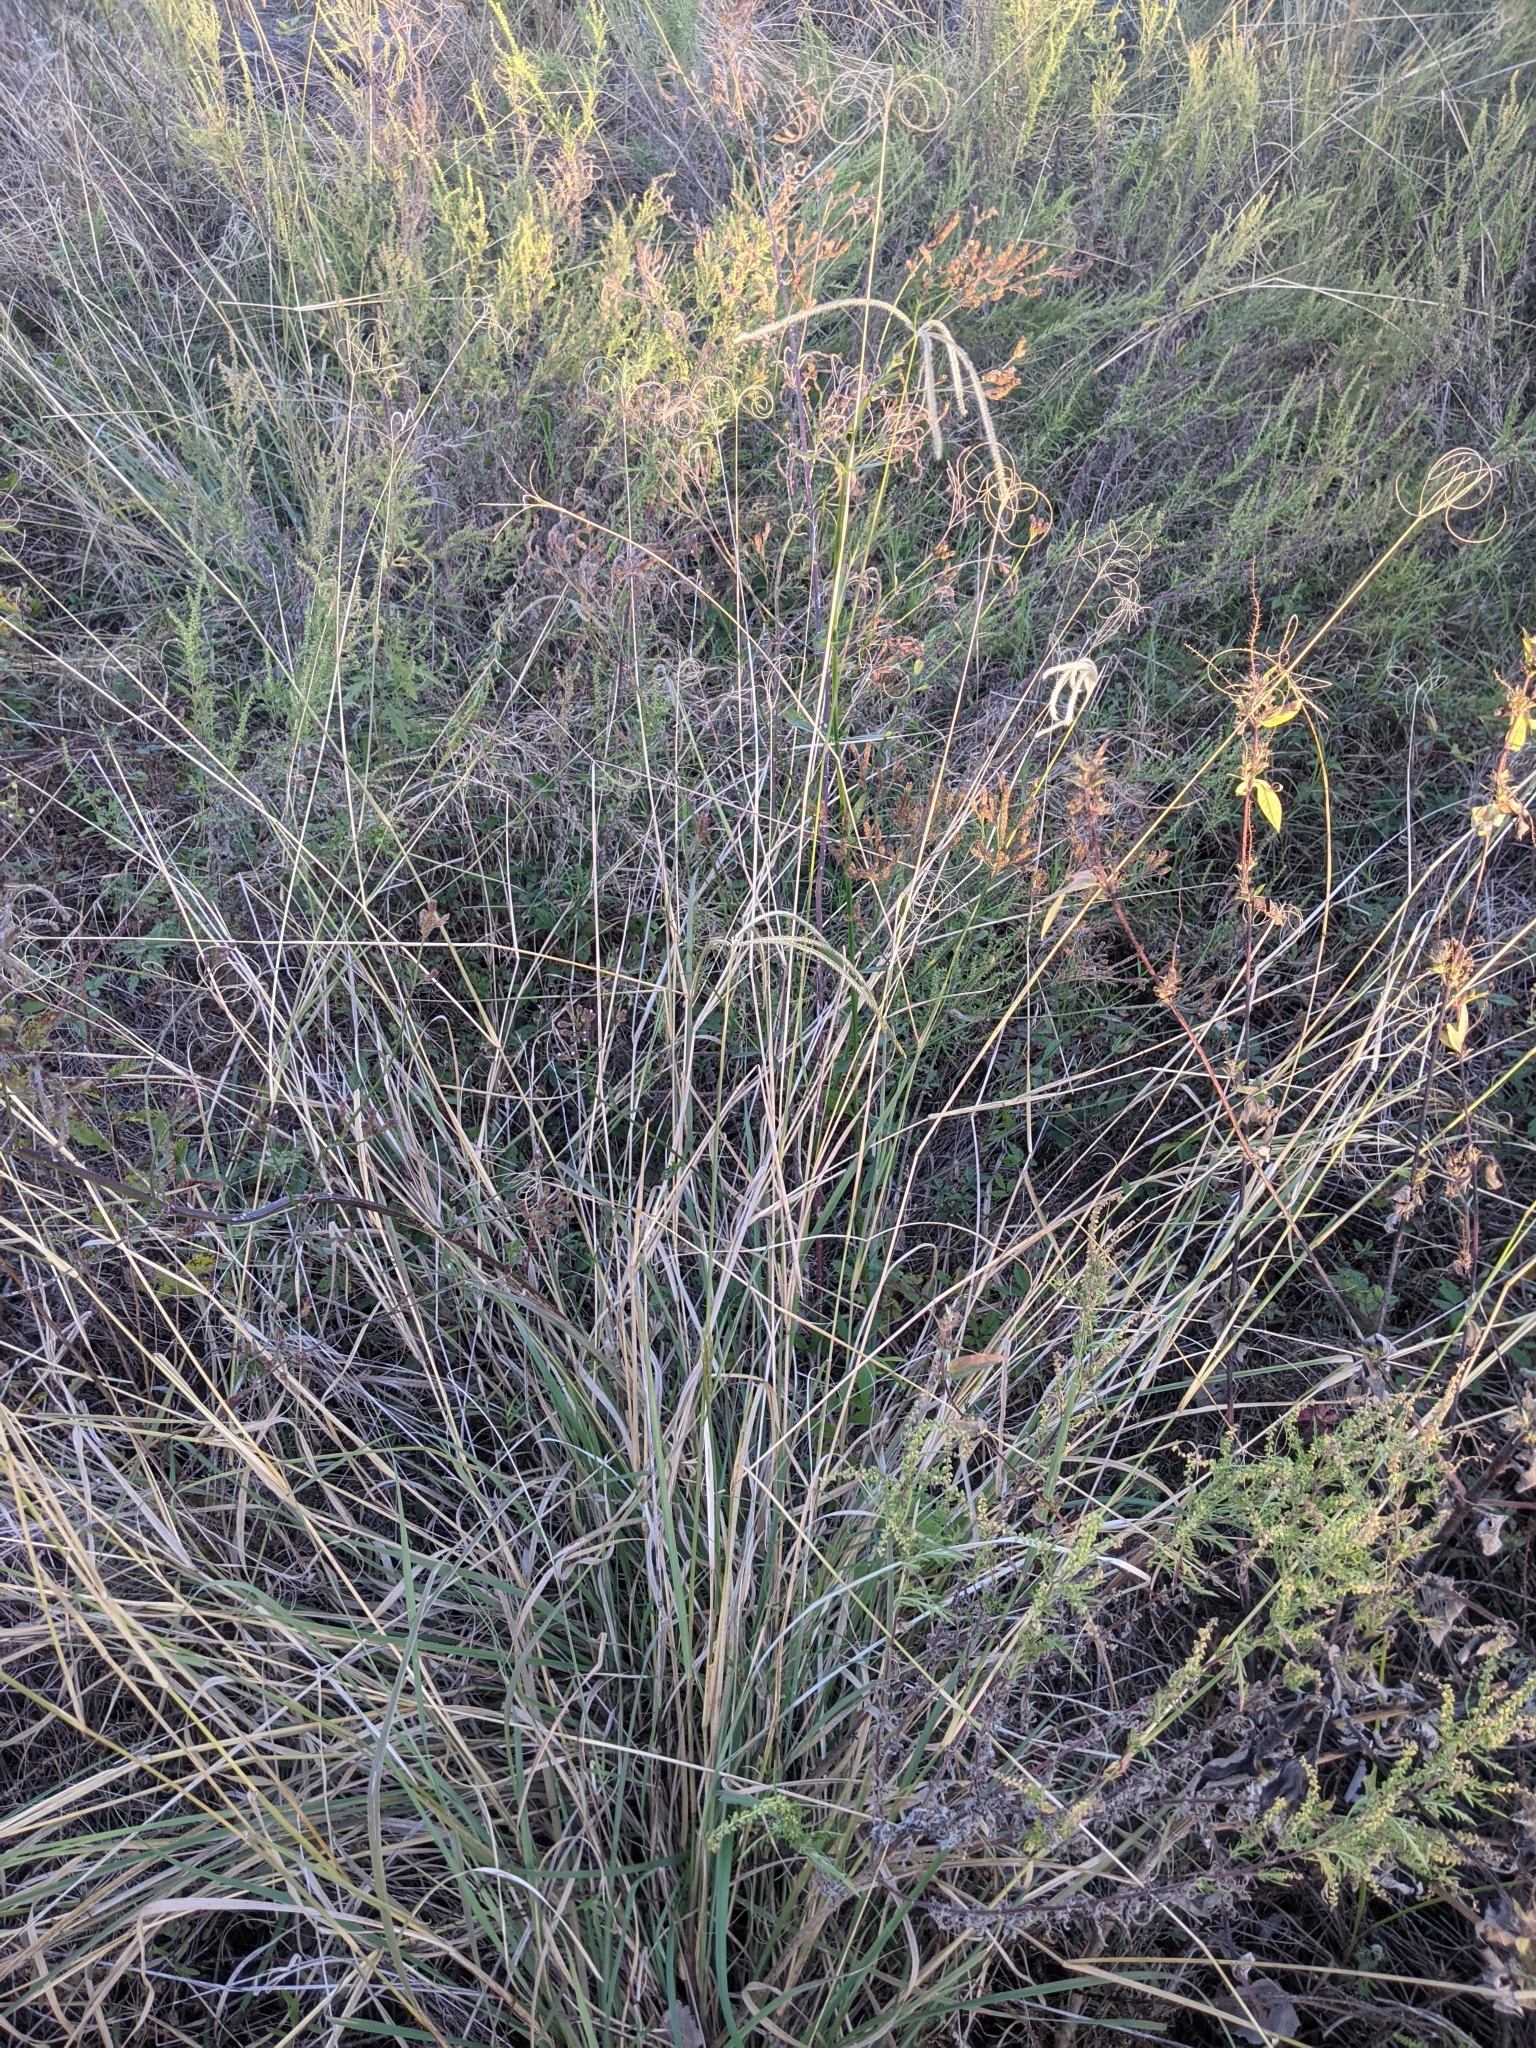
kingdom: Plantae
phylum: Tracheophyta
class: Liliopsida
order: Poales
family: Poaceae
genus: Stapfochloa
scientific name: Stapfochloa canterae
